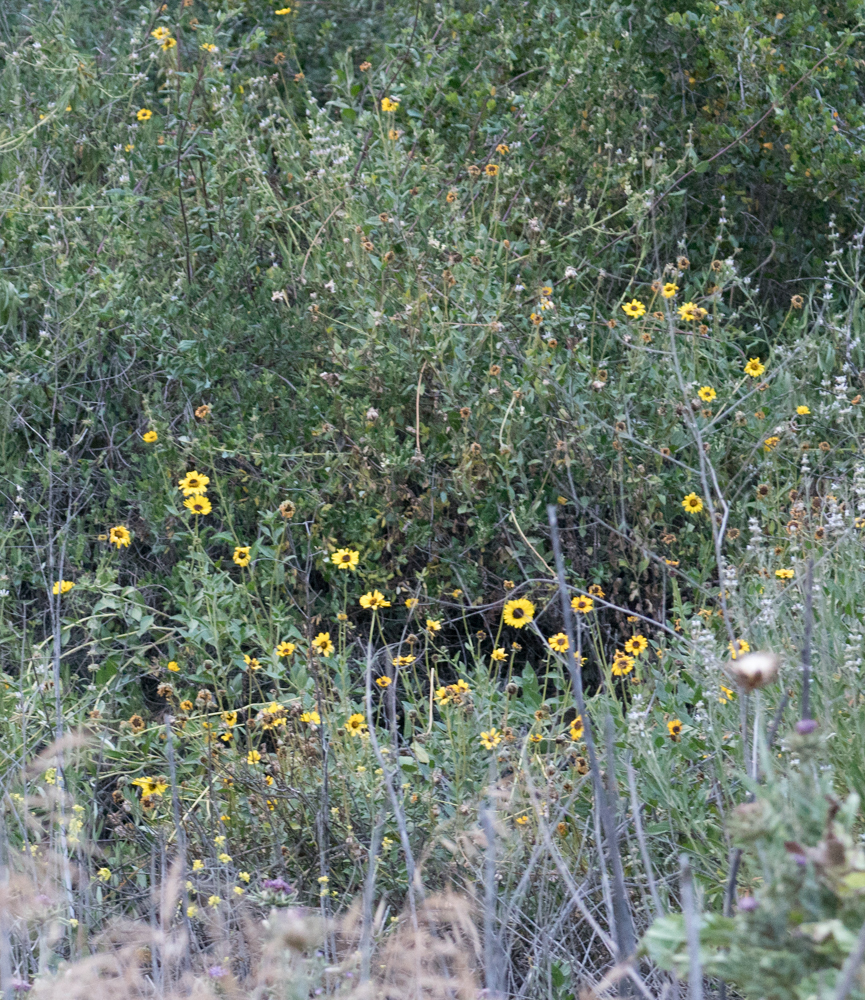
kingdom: Plantae
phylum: Tracheophyta
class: Magnoliopsida
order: Asterales
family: Asteraceae
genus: Encelia
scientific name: Encelia californica
